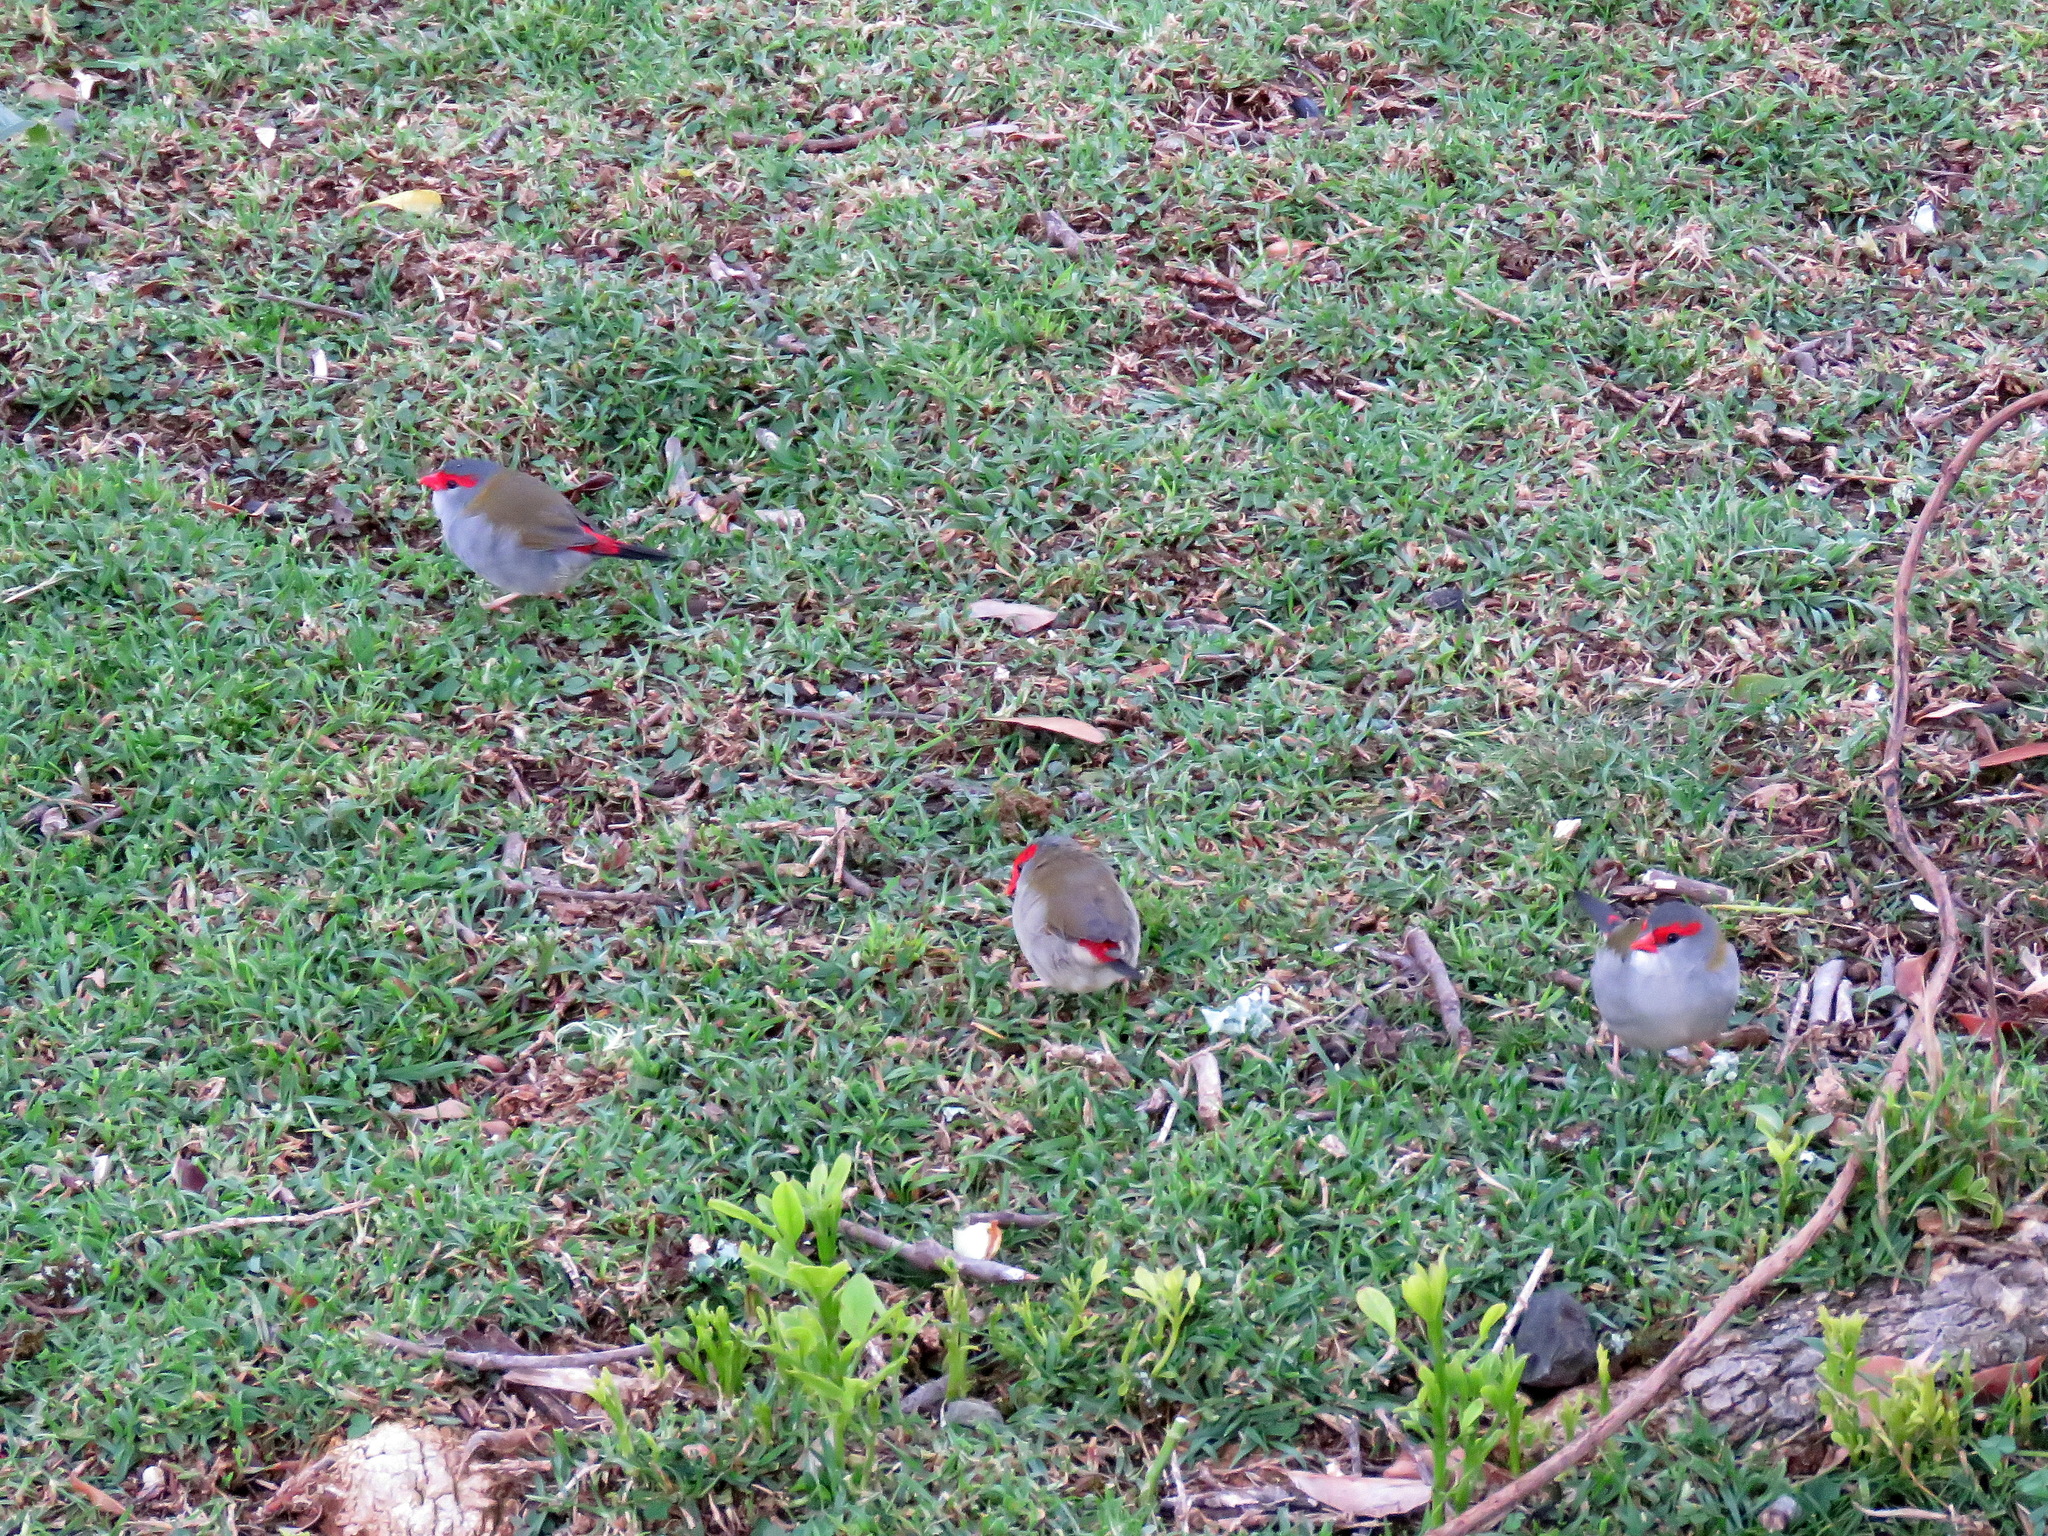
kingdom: Animalia
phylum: Chordata
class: Aves
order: Passeriformes
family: Estrildidae
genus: Neochmia
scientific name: Neochmia temporalis
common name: Red-browed finch
